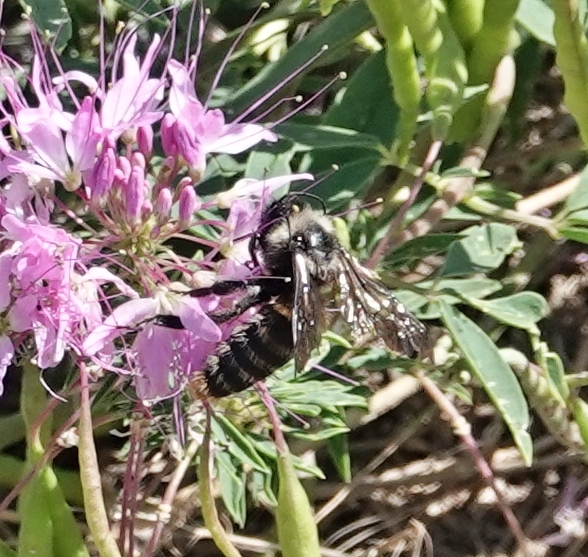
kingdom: Animalia
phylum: Arthropoda
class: Insecta
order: Hymenoptera
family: Apidae
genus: Bombus
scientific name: Bombus pensylvanicus
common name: Bumble bee
